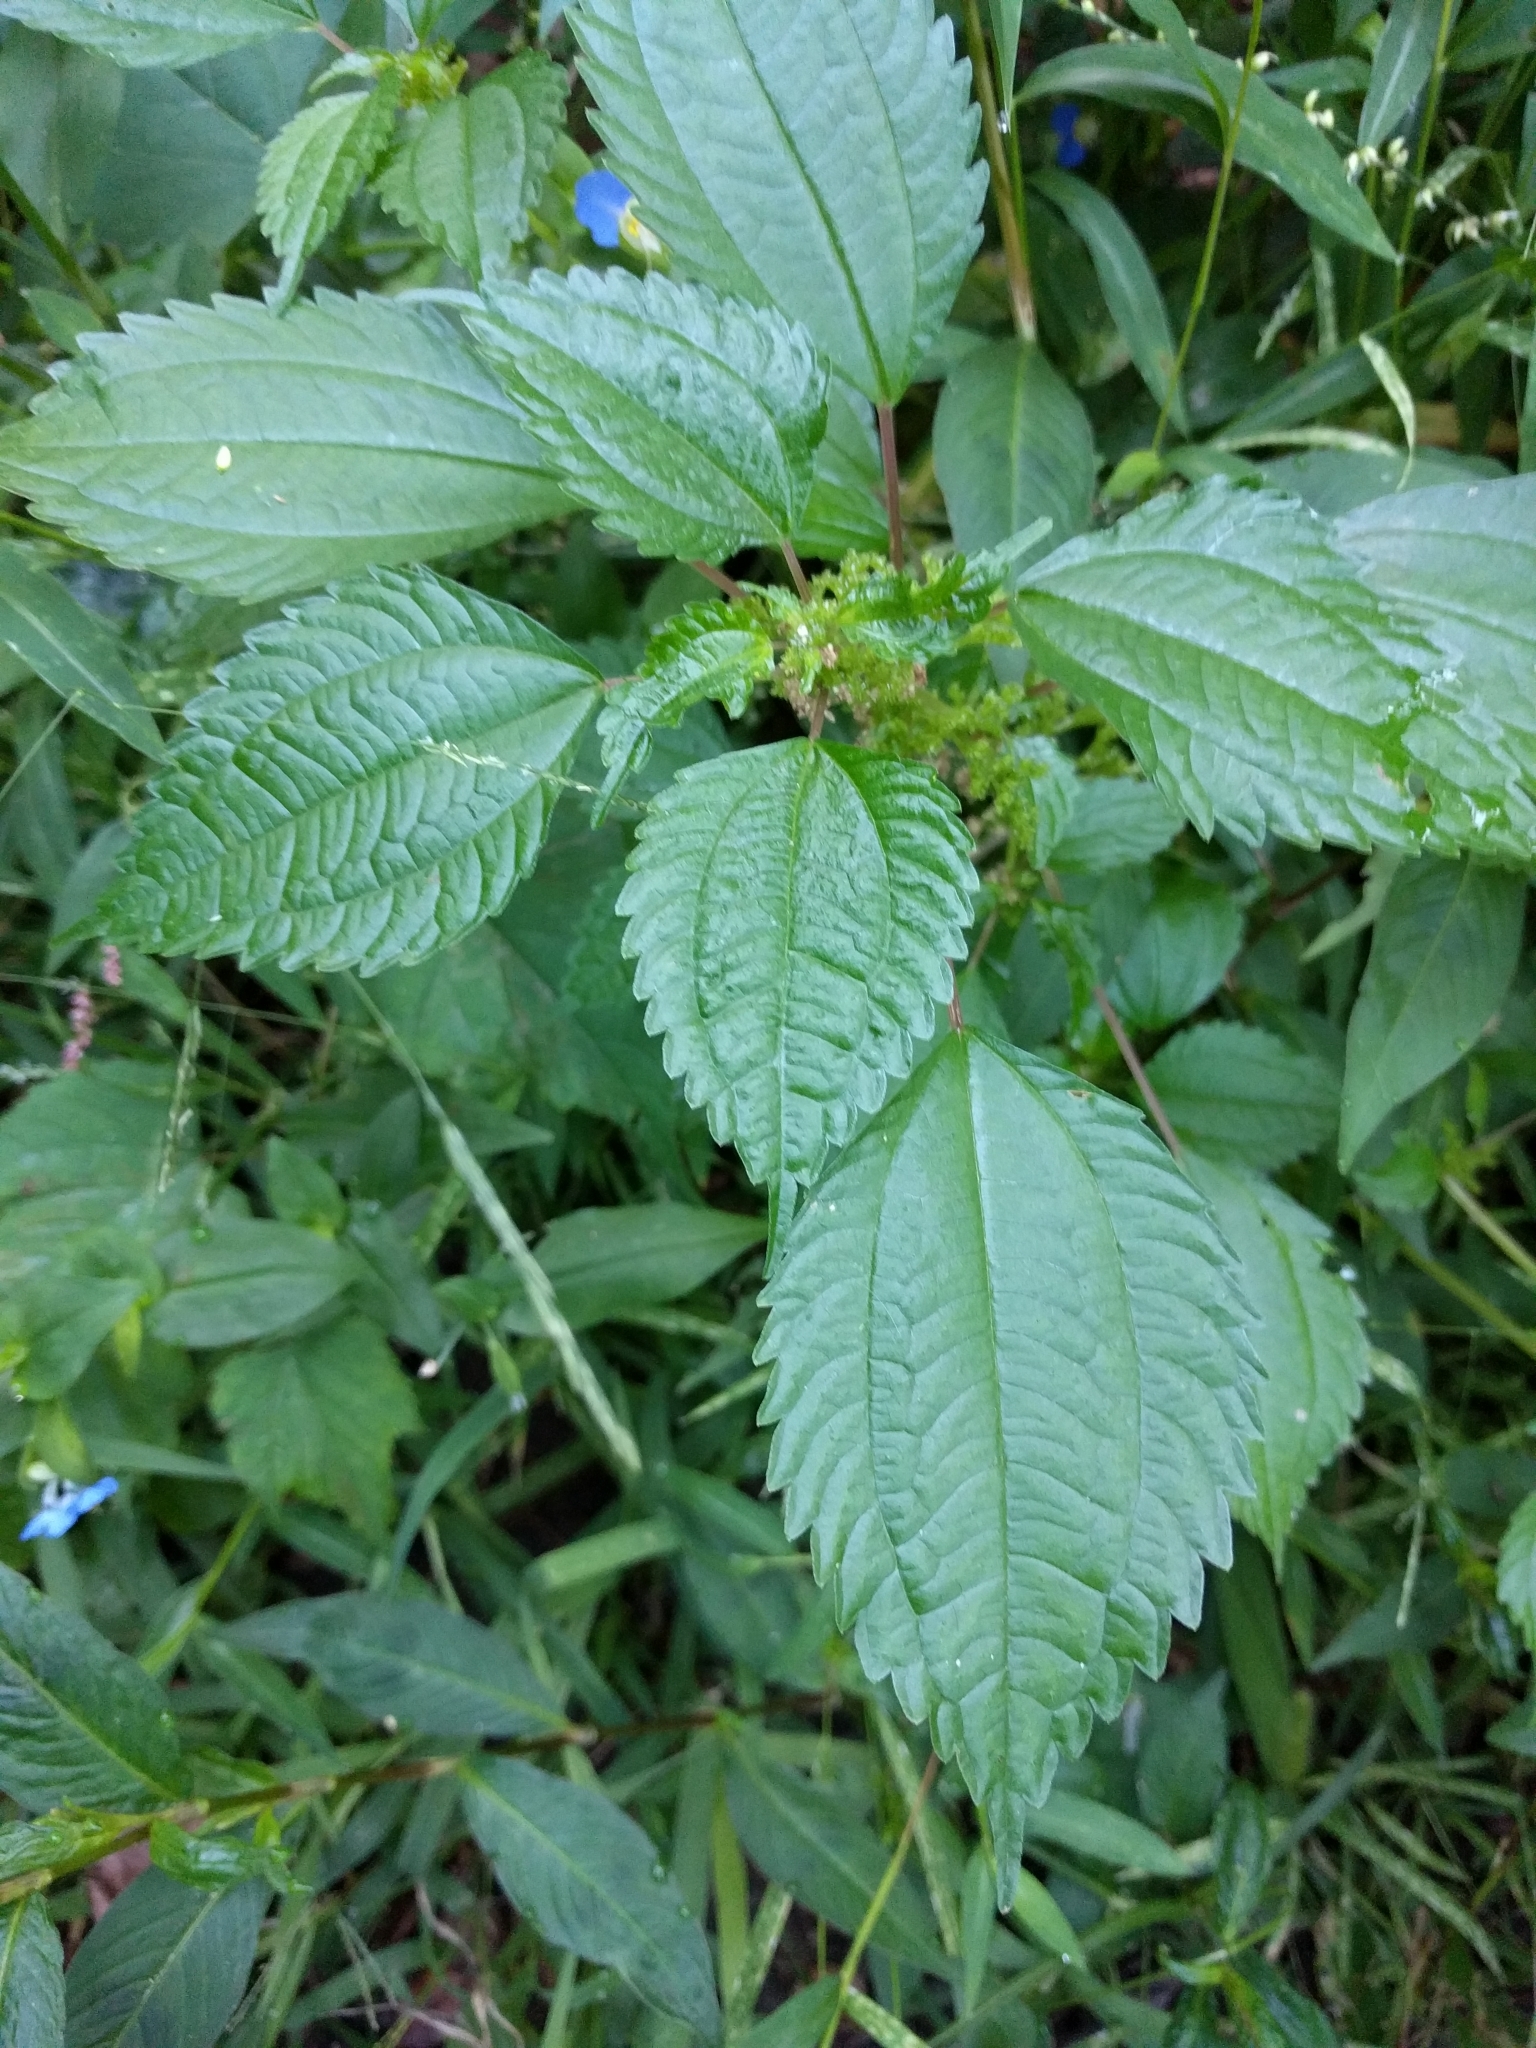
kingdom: Plantae
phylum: Tracheophyta
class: Magnoliopsida
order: Rosales
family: Urticaceae
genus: Pilea
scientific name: Pilea pumila
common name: Clearweed
